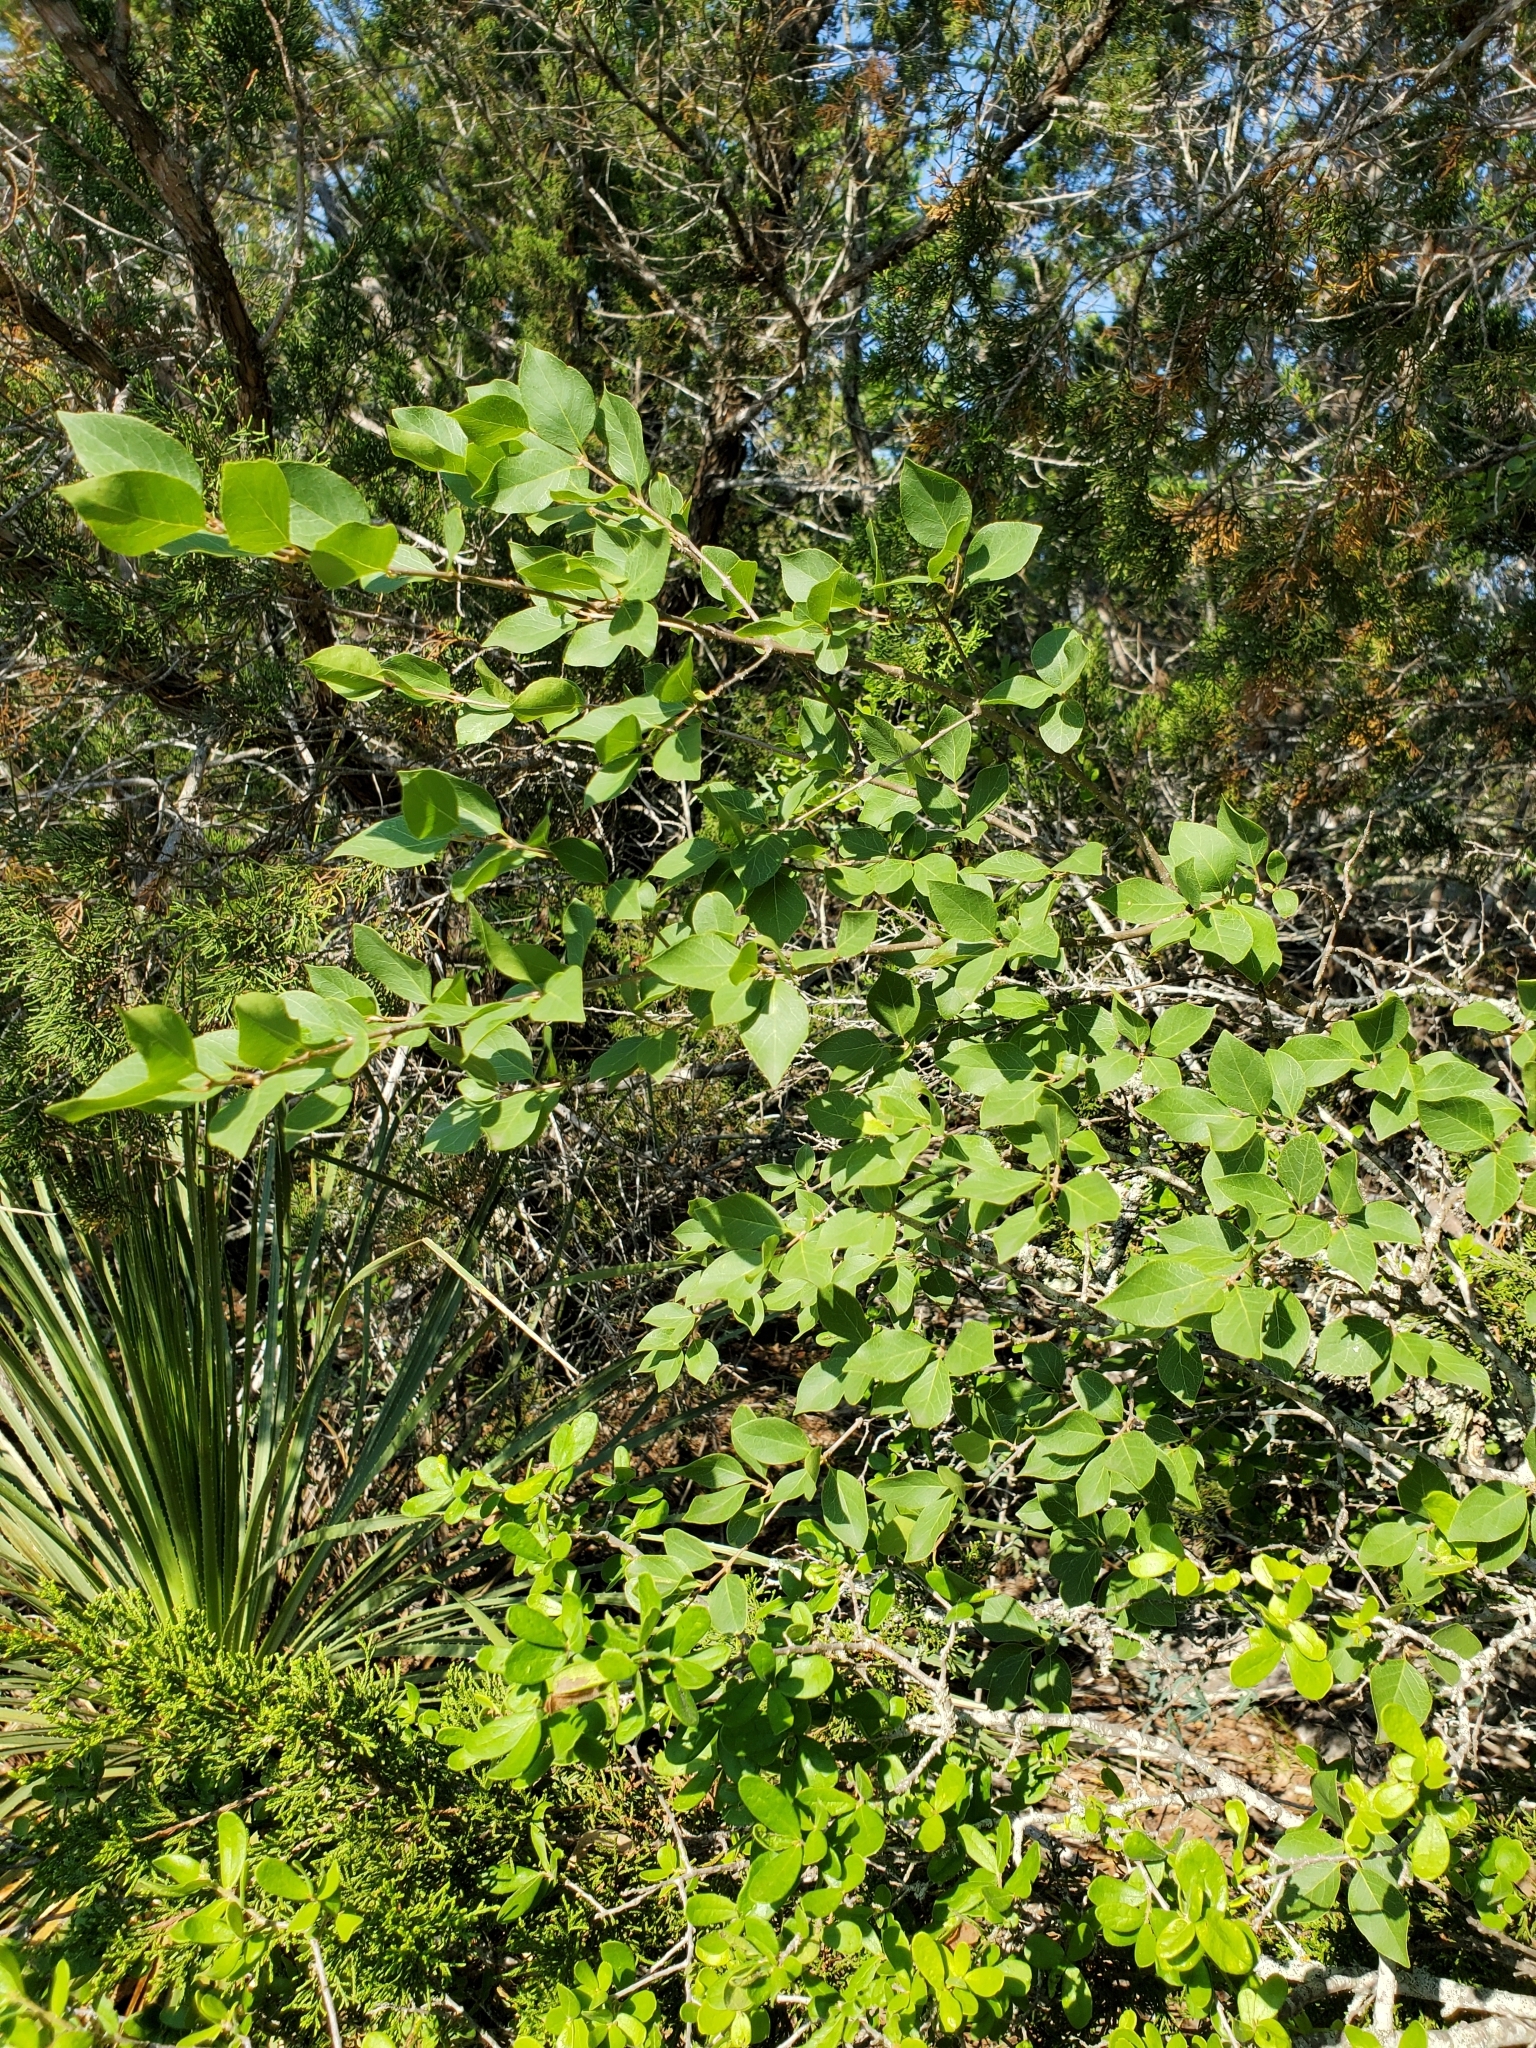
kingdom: Plantae
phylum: Tracheophyta
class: Magnoliopsida
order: Lamiales
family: Oleaceae
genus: Forestiera
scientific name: Forestiera reticulata
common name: Netleaf swamp-privet
